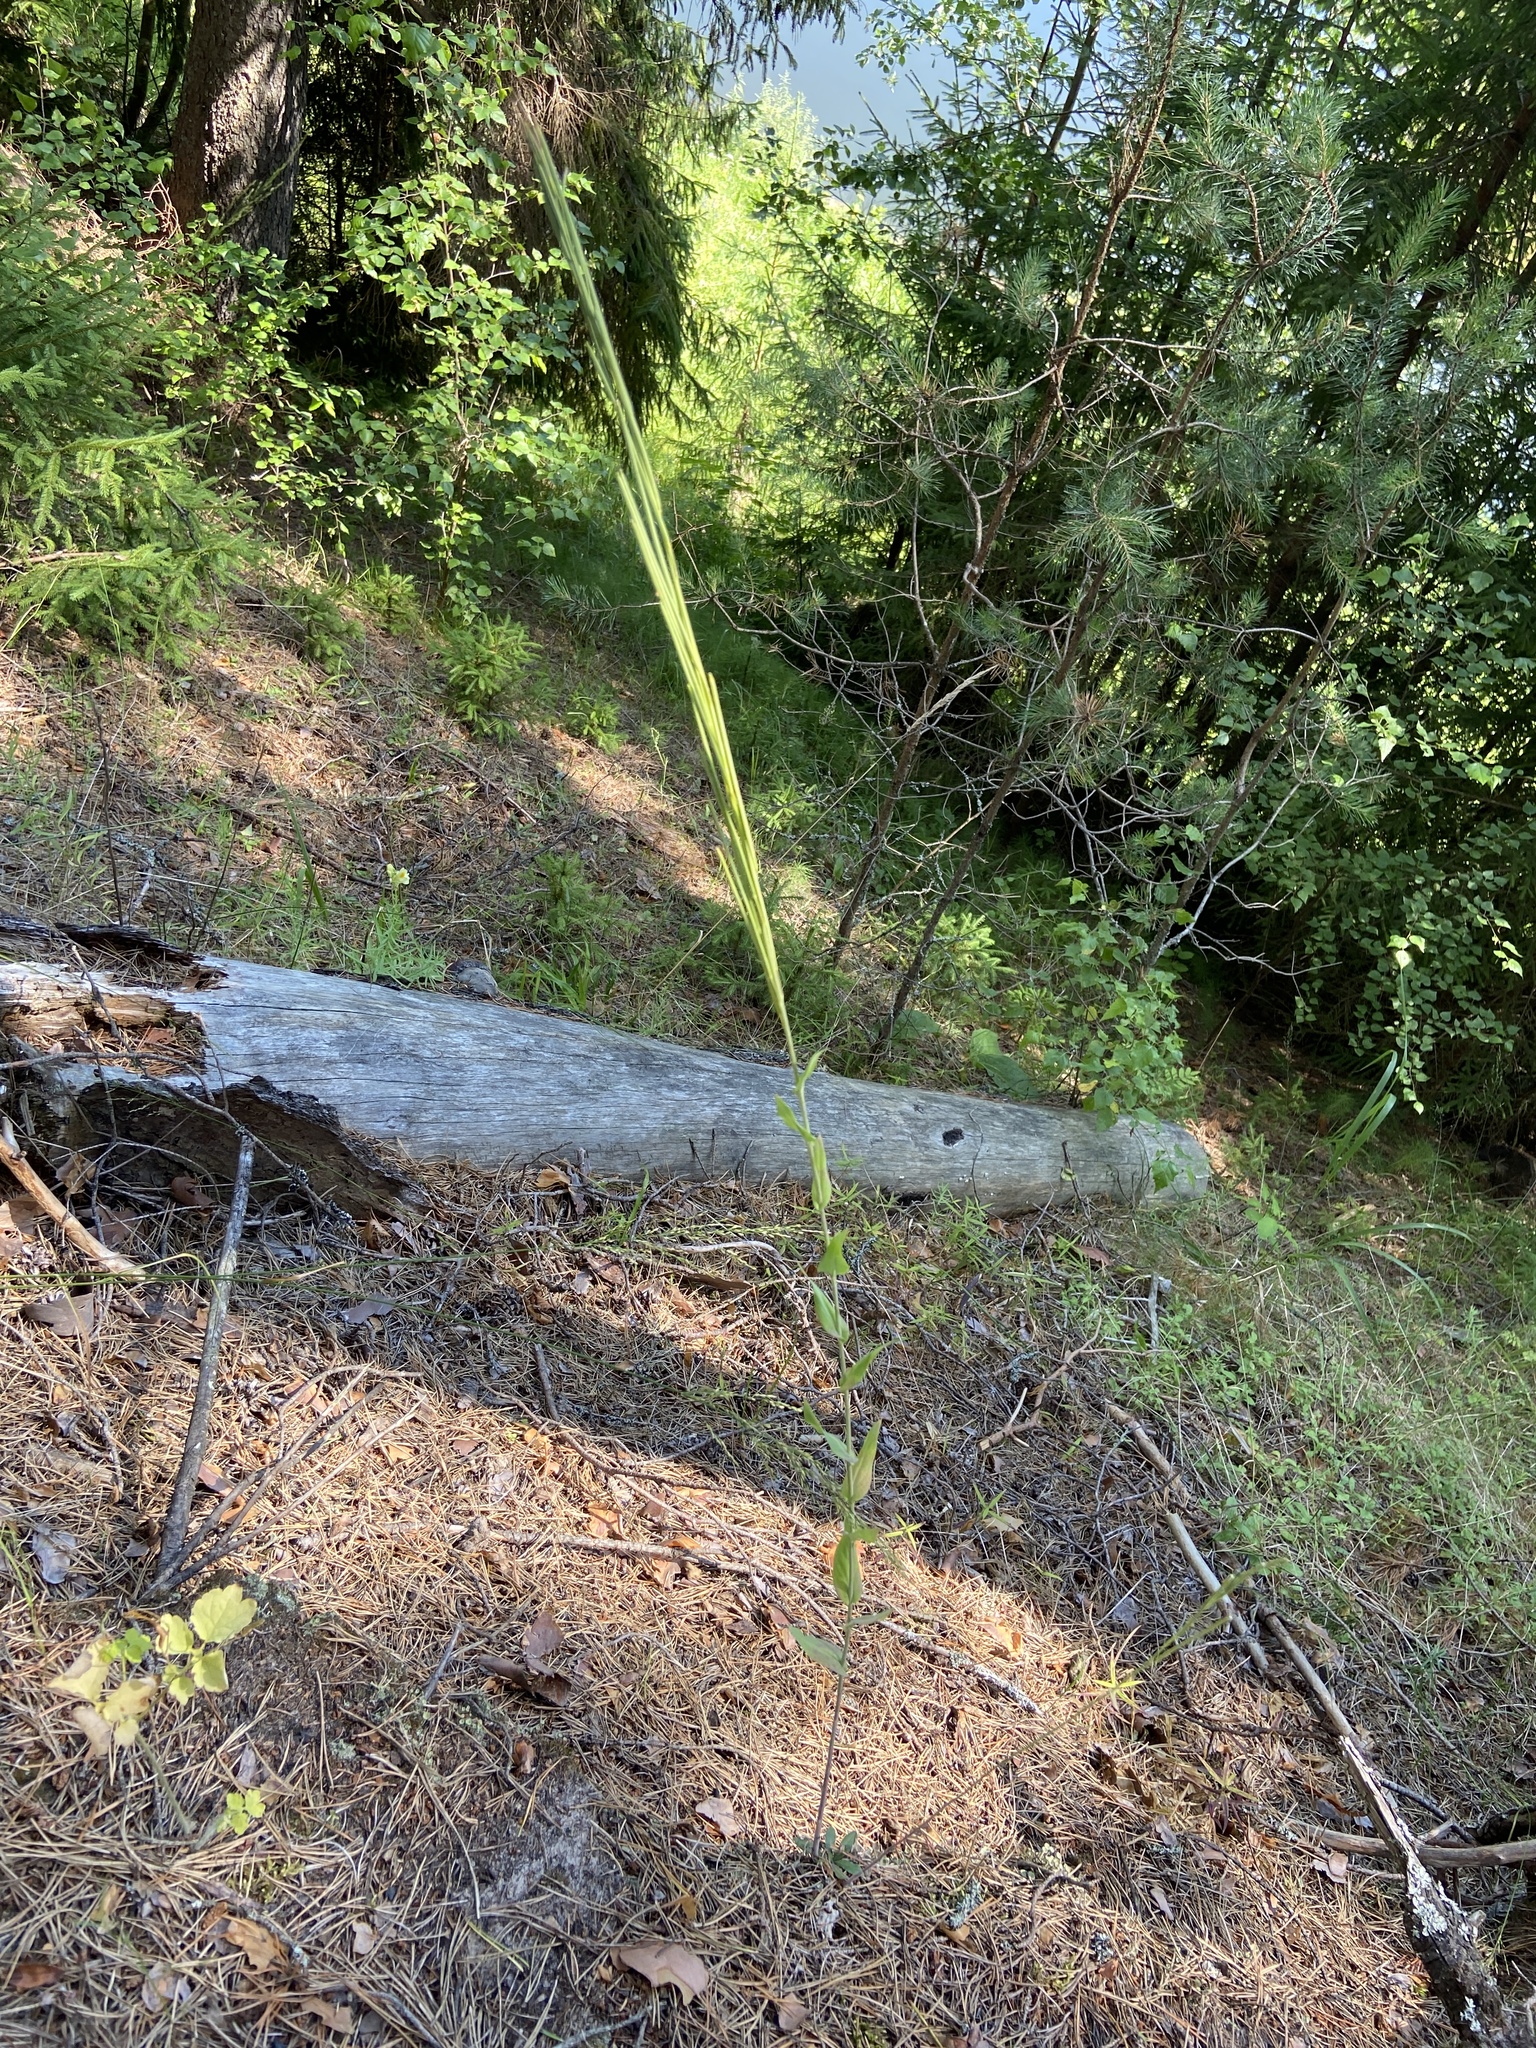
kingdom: Plantae
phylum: Tracheophyta
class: Magnoliopsida
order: Brassicales
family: Brassicaceae
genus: Turritis
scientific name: Turritis glabra
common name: Tower rockcress
